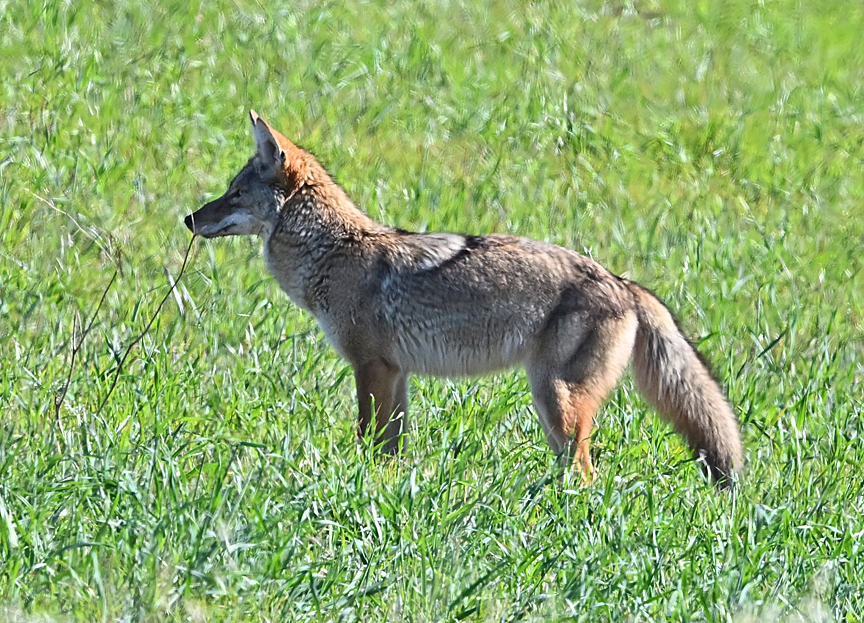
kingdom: Animalia
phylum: Chordata
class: Mammalia
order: Carnivora
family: Canidae
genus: Canis
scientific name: Canis latrans
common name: Coyote
